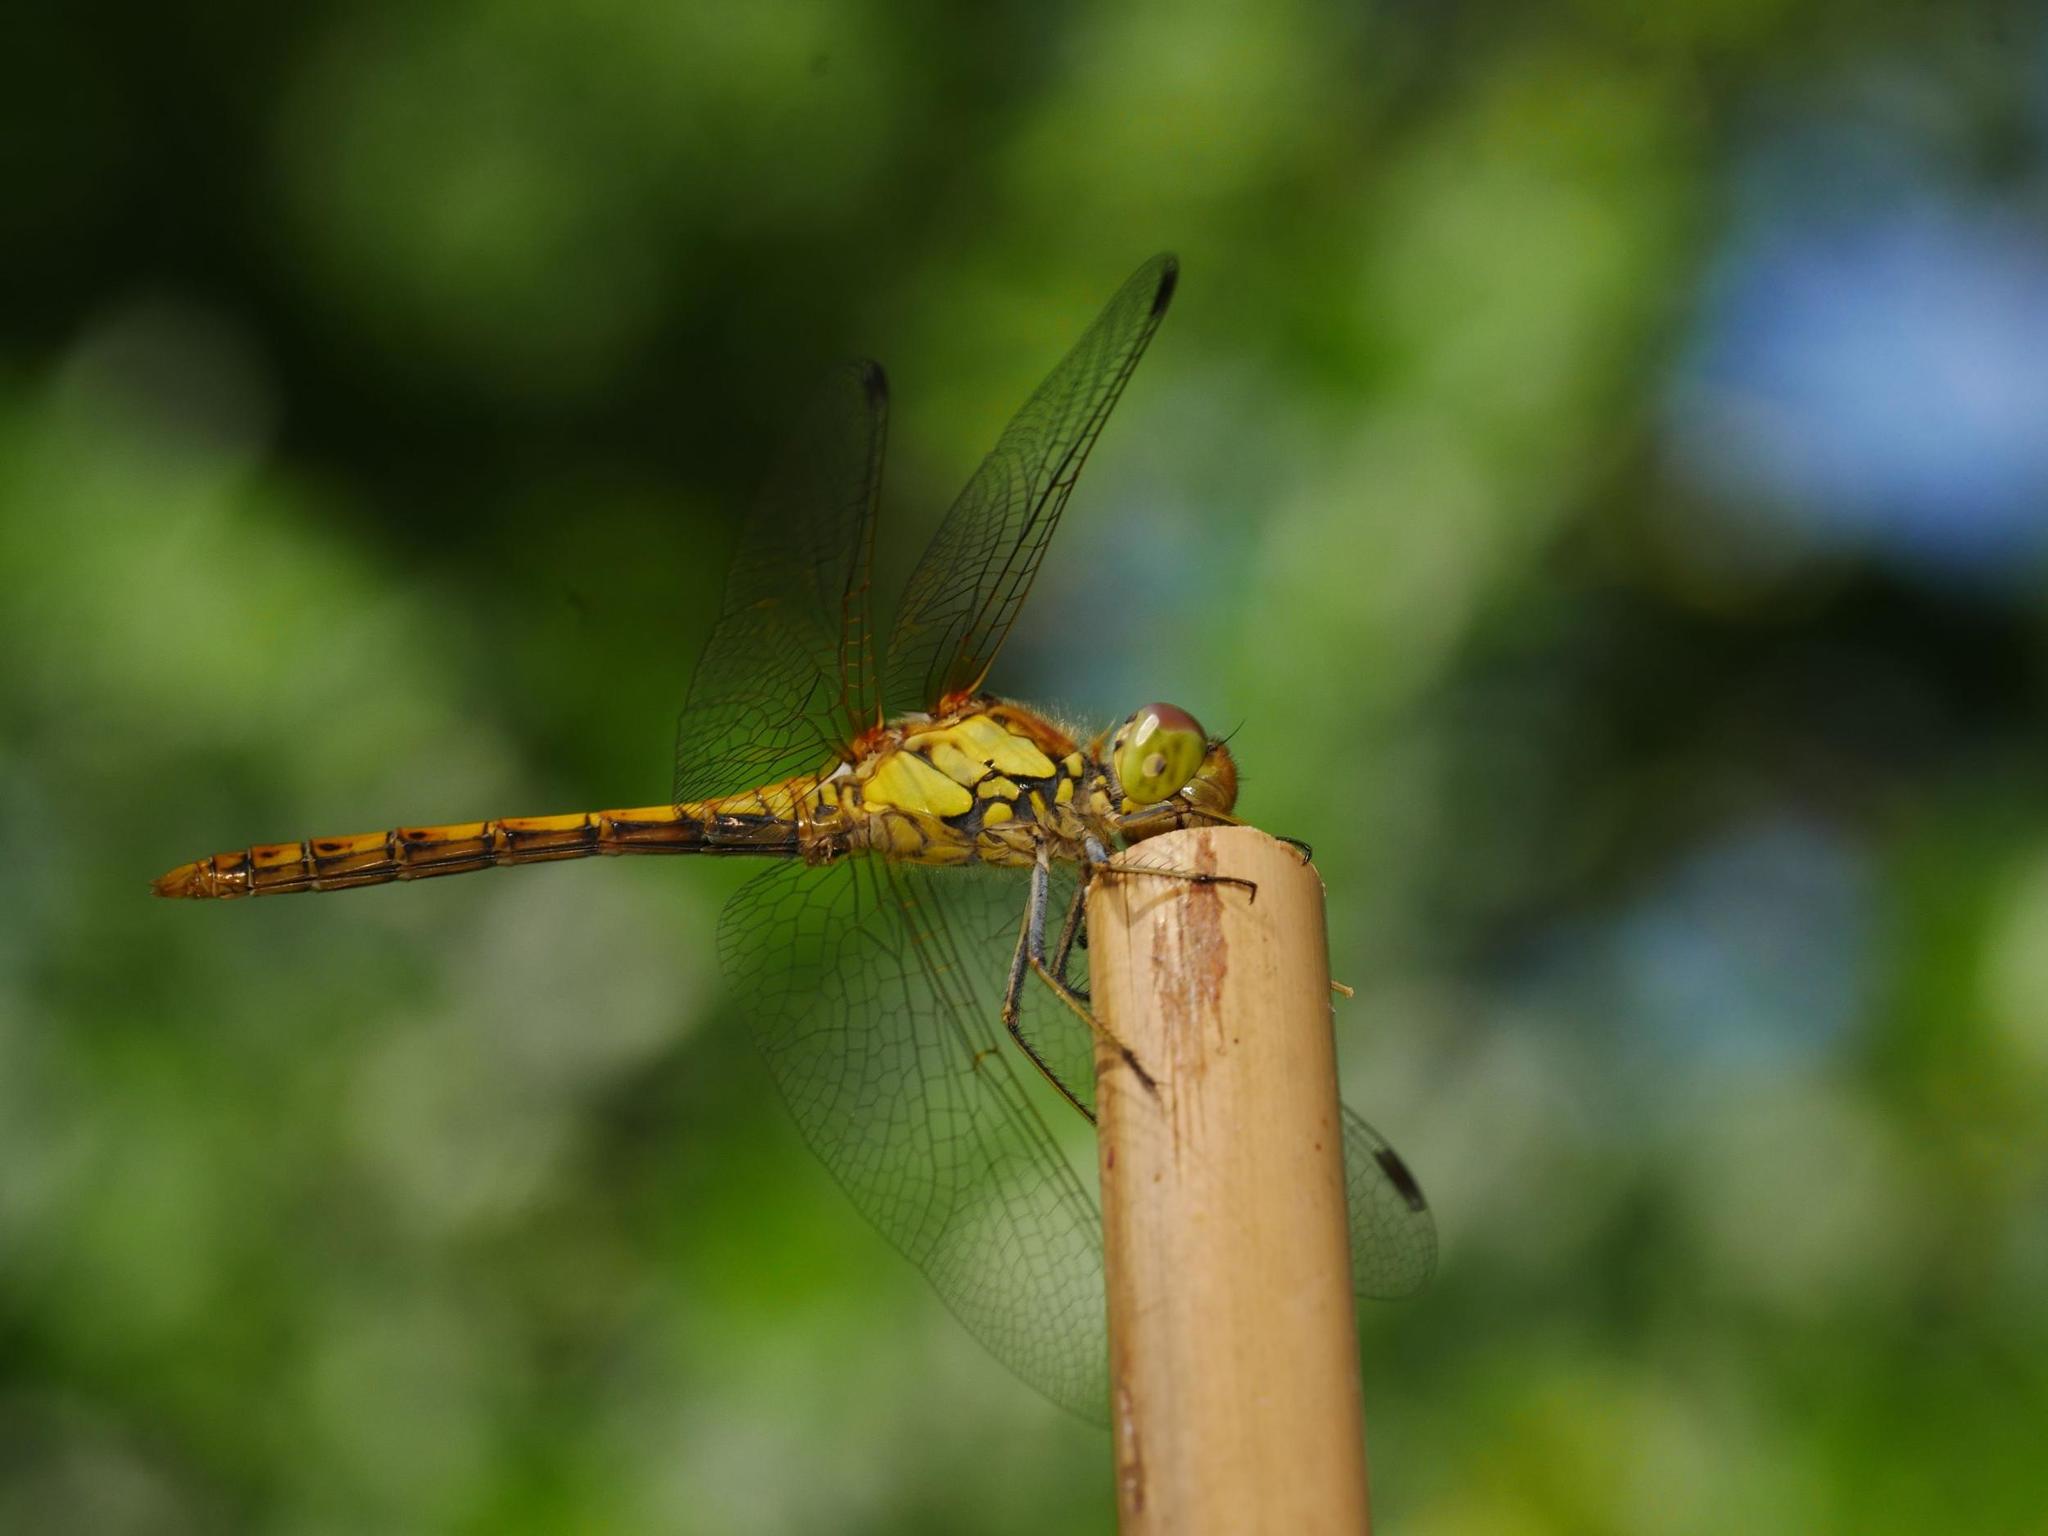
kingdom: Animalia
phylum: Arthropoda
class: Insecta
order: Odonata
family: Libellulidae
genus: Sympetrum
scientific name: Sympetrum striolatum
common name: Common darter
